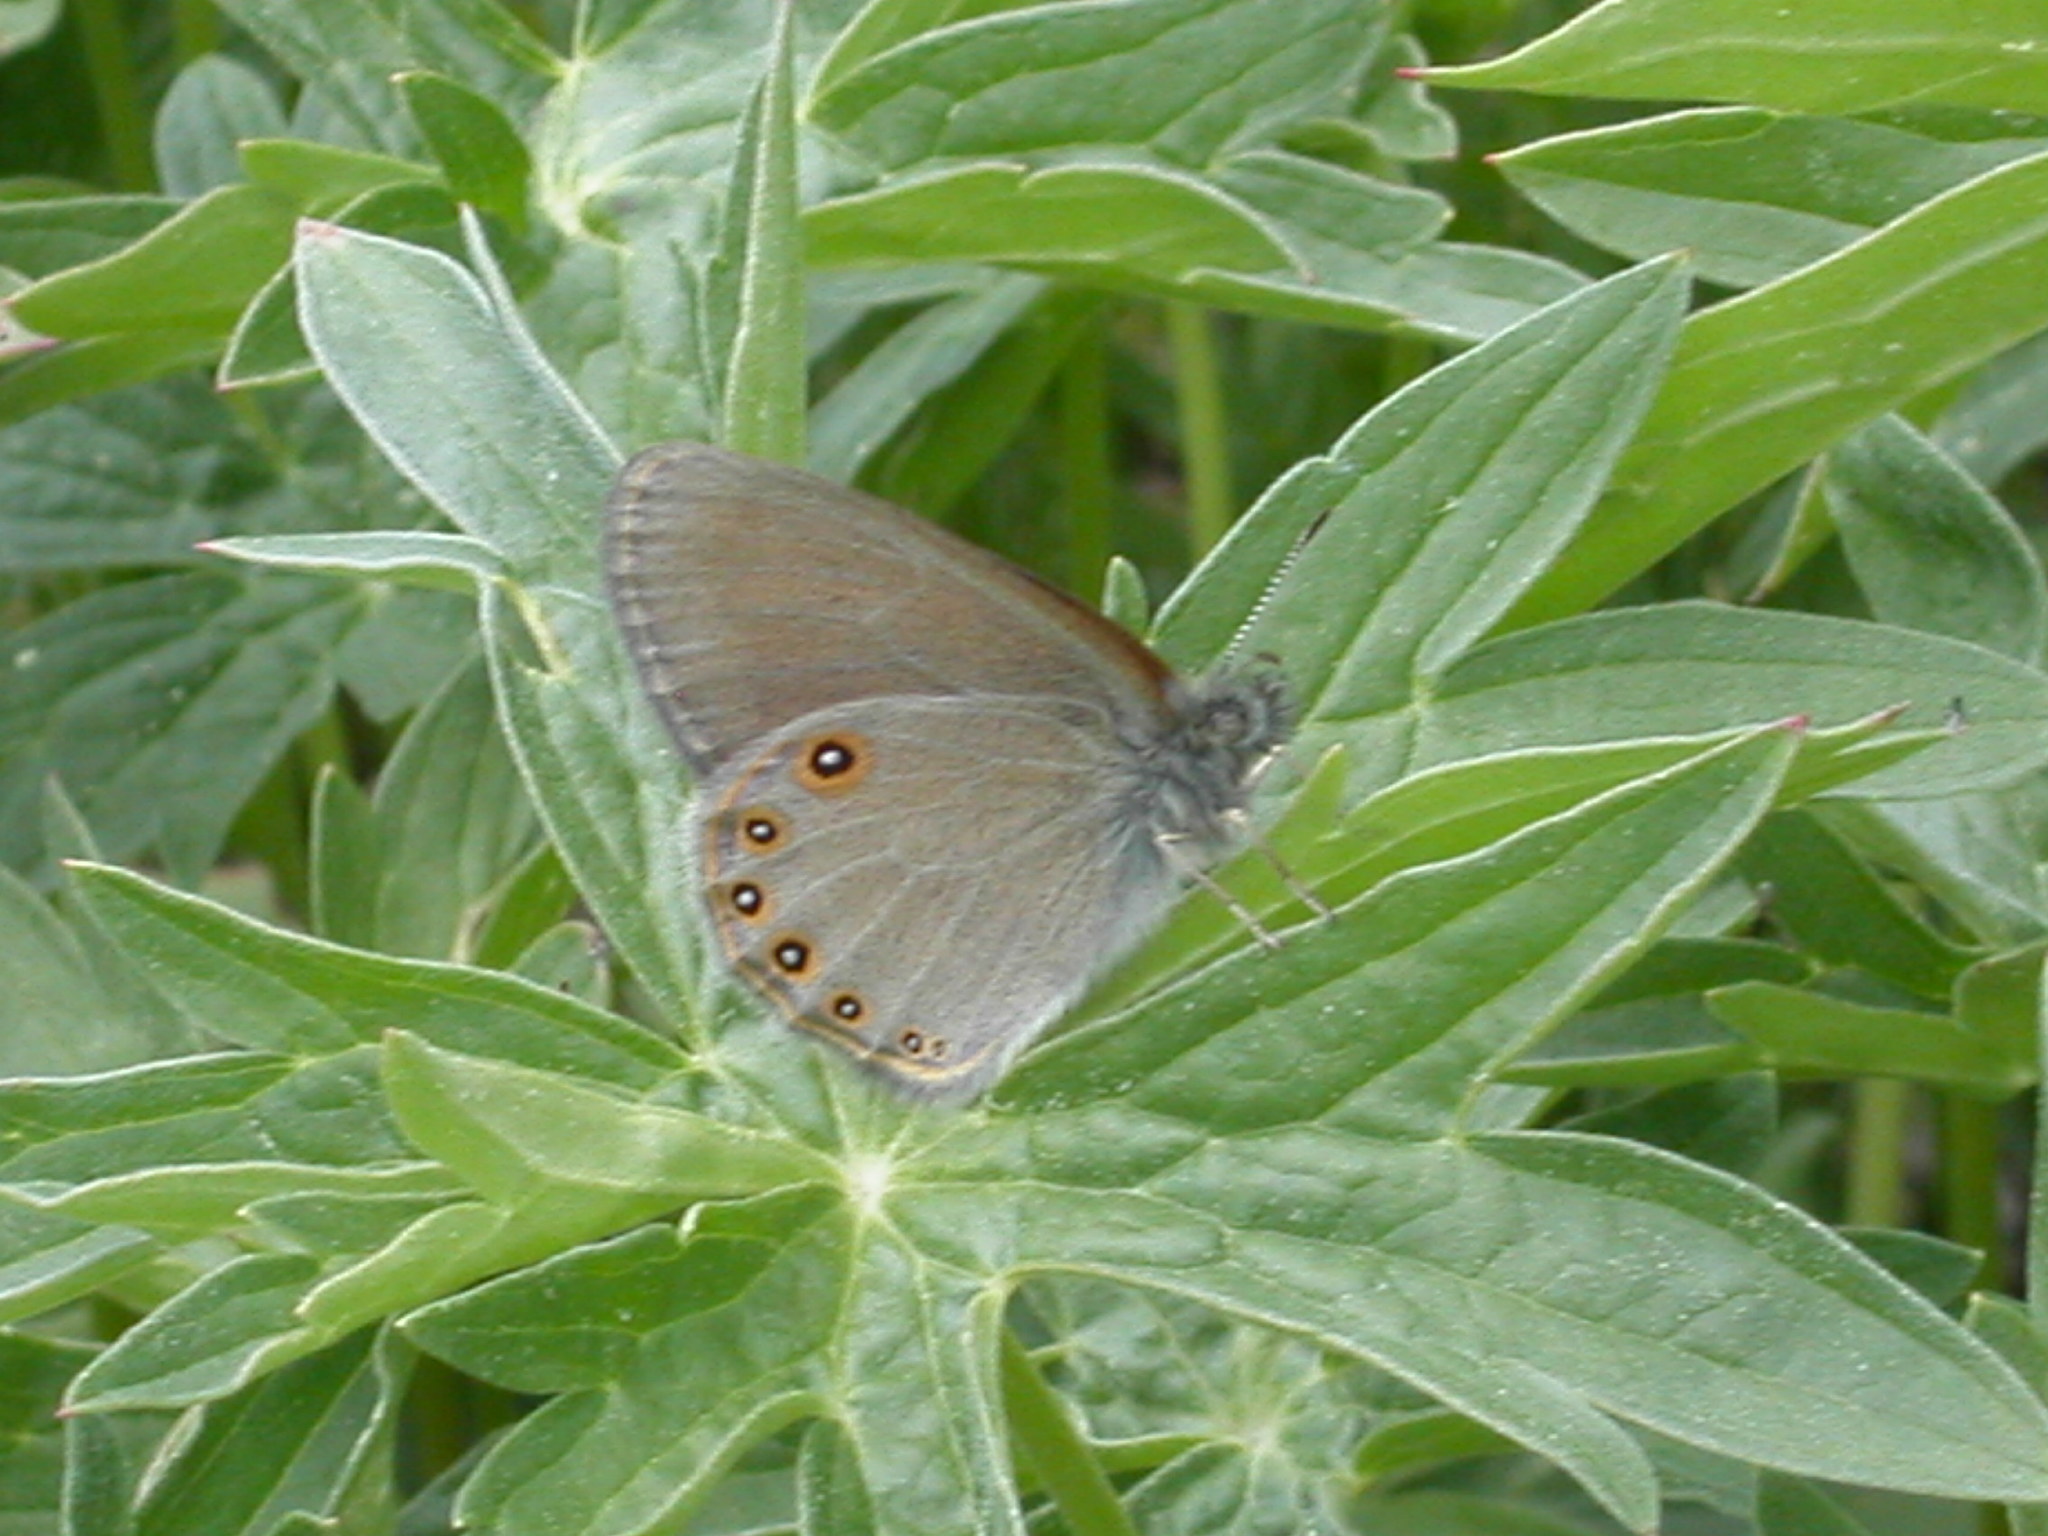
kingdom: Animalia
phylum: Arthropoda
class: Insecta
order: Lepidoptera
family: Nymphalidae
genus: Coenonympha
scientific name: Coenonympha haydeni
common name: Hayden's ringlet
